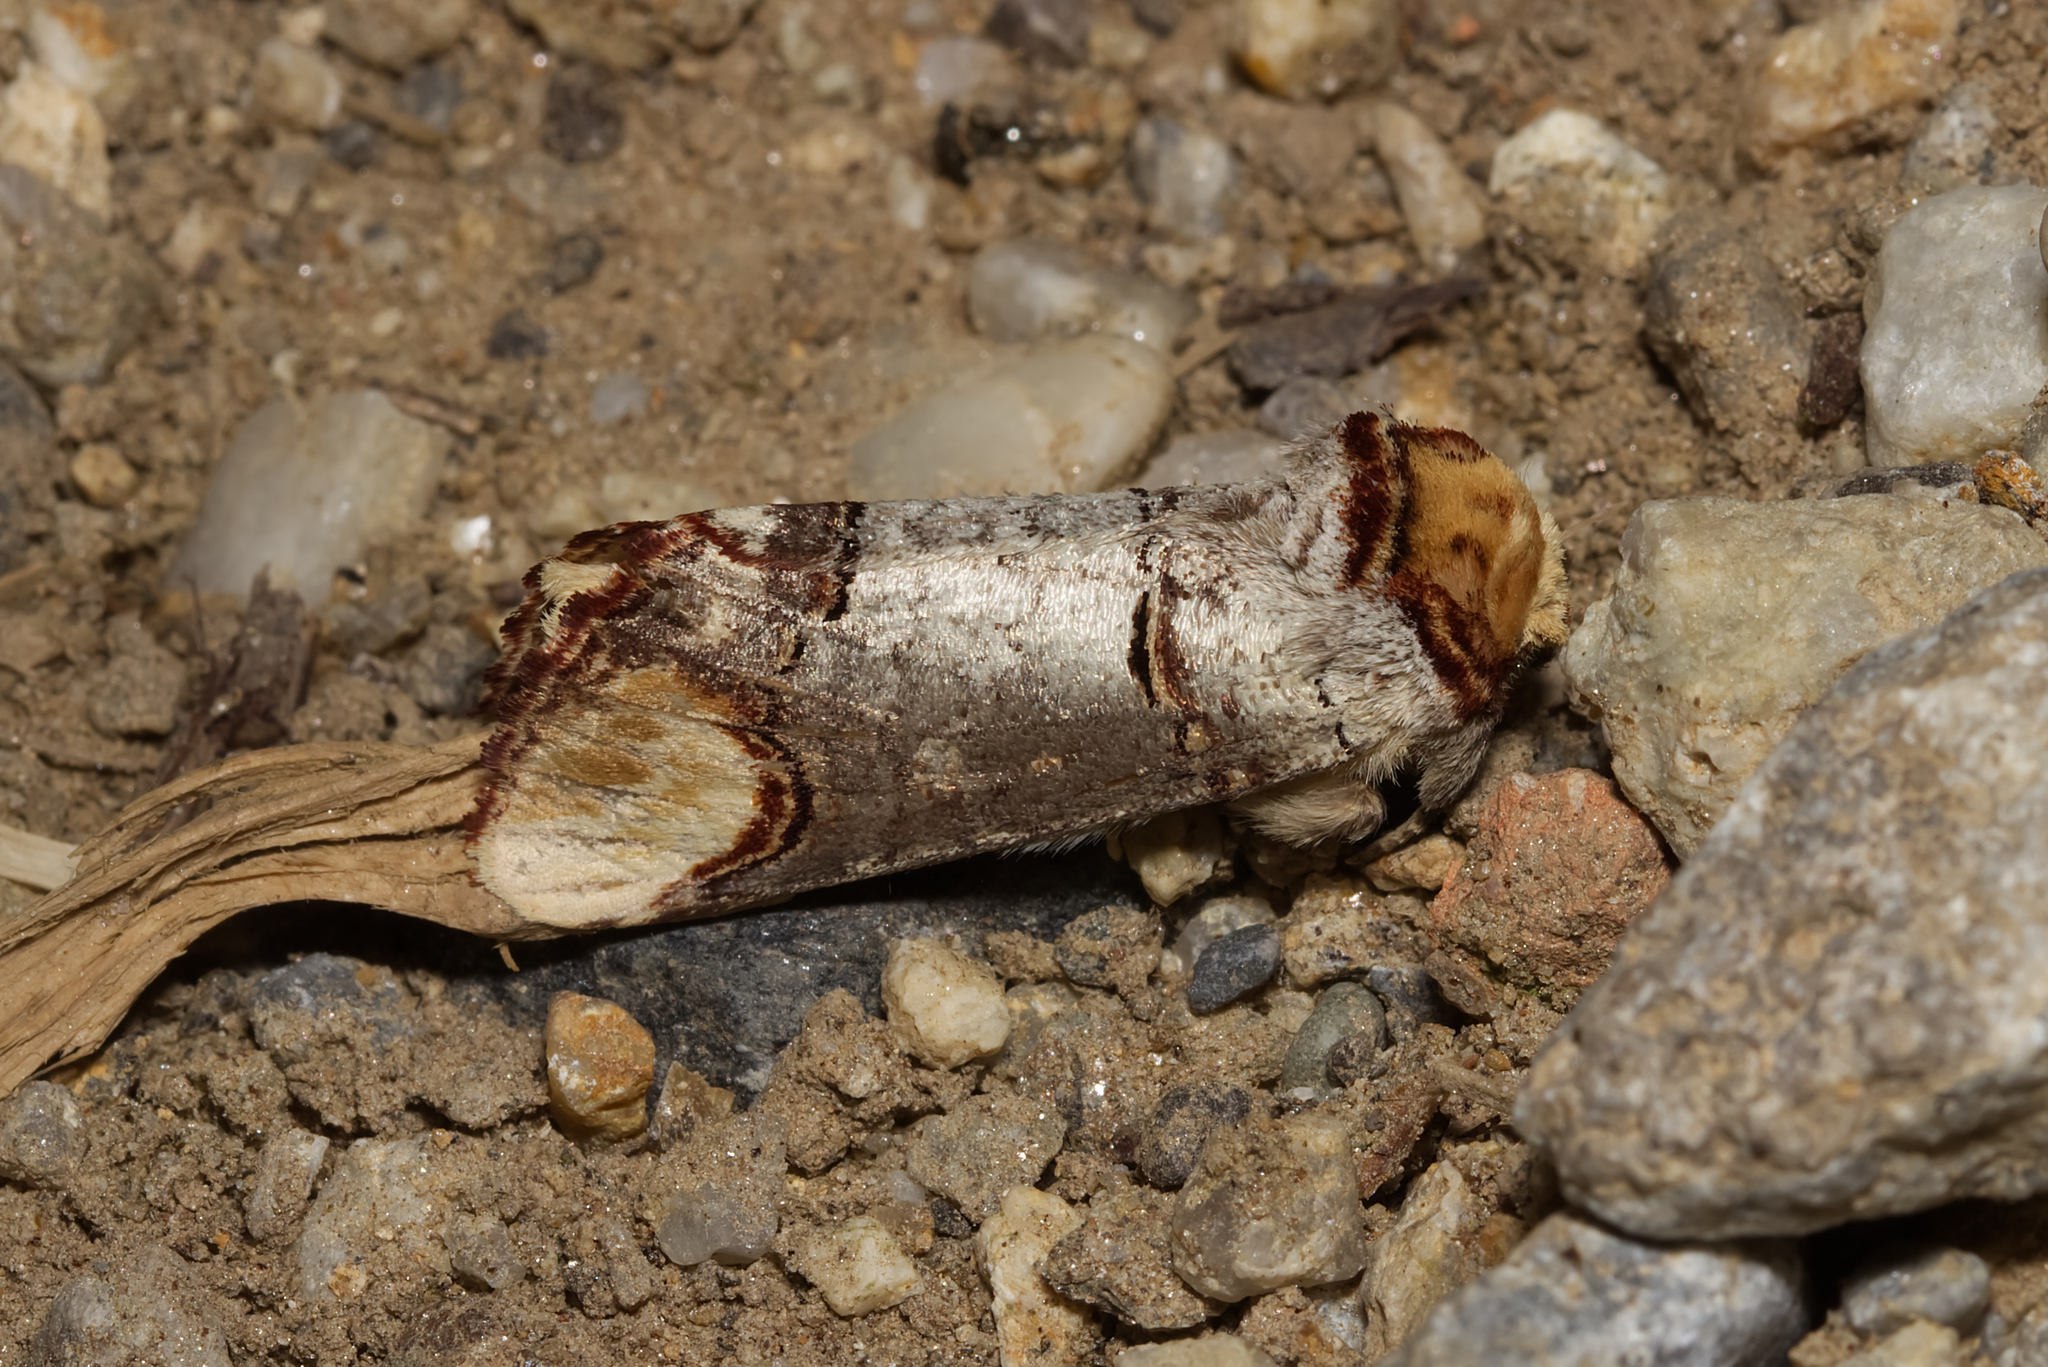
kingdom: Animalia
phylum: Arthropoda
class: Insecta
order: Lepidoptera
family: Notodontidae
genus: Phalera
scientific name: Phalera bucephala
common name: Buff-tip
